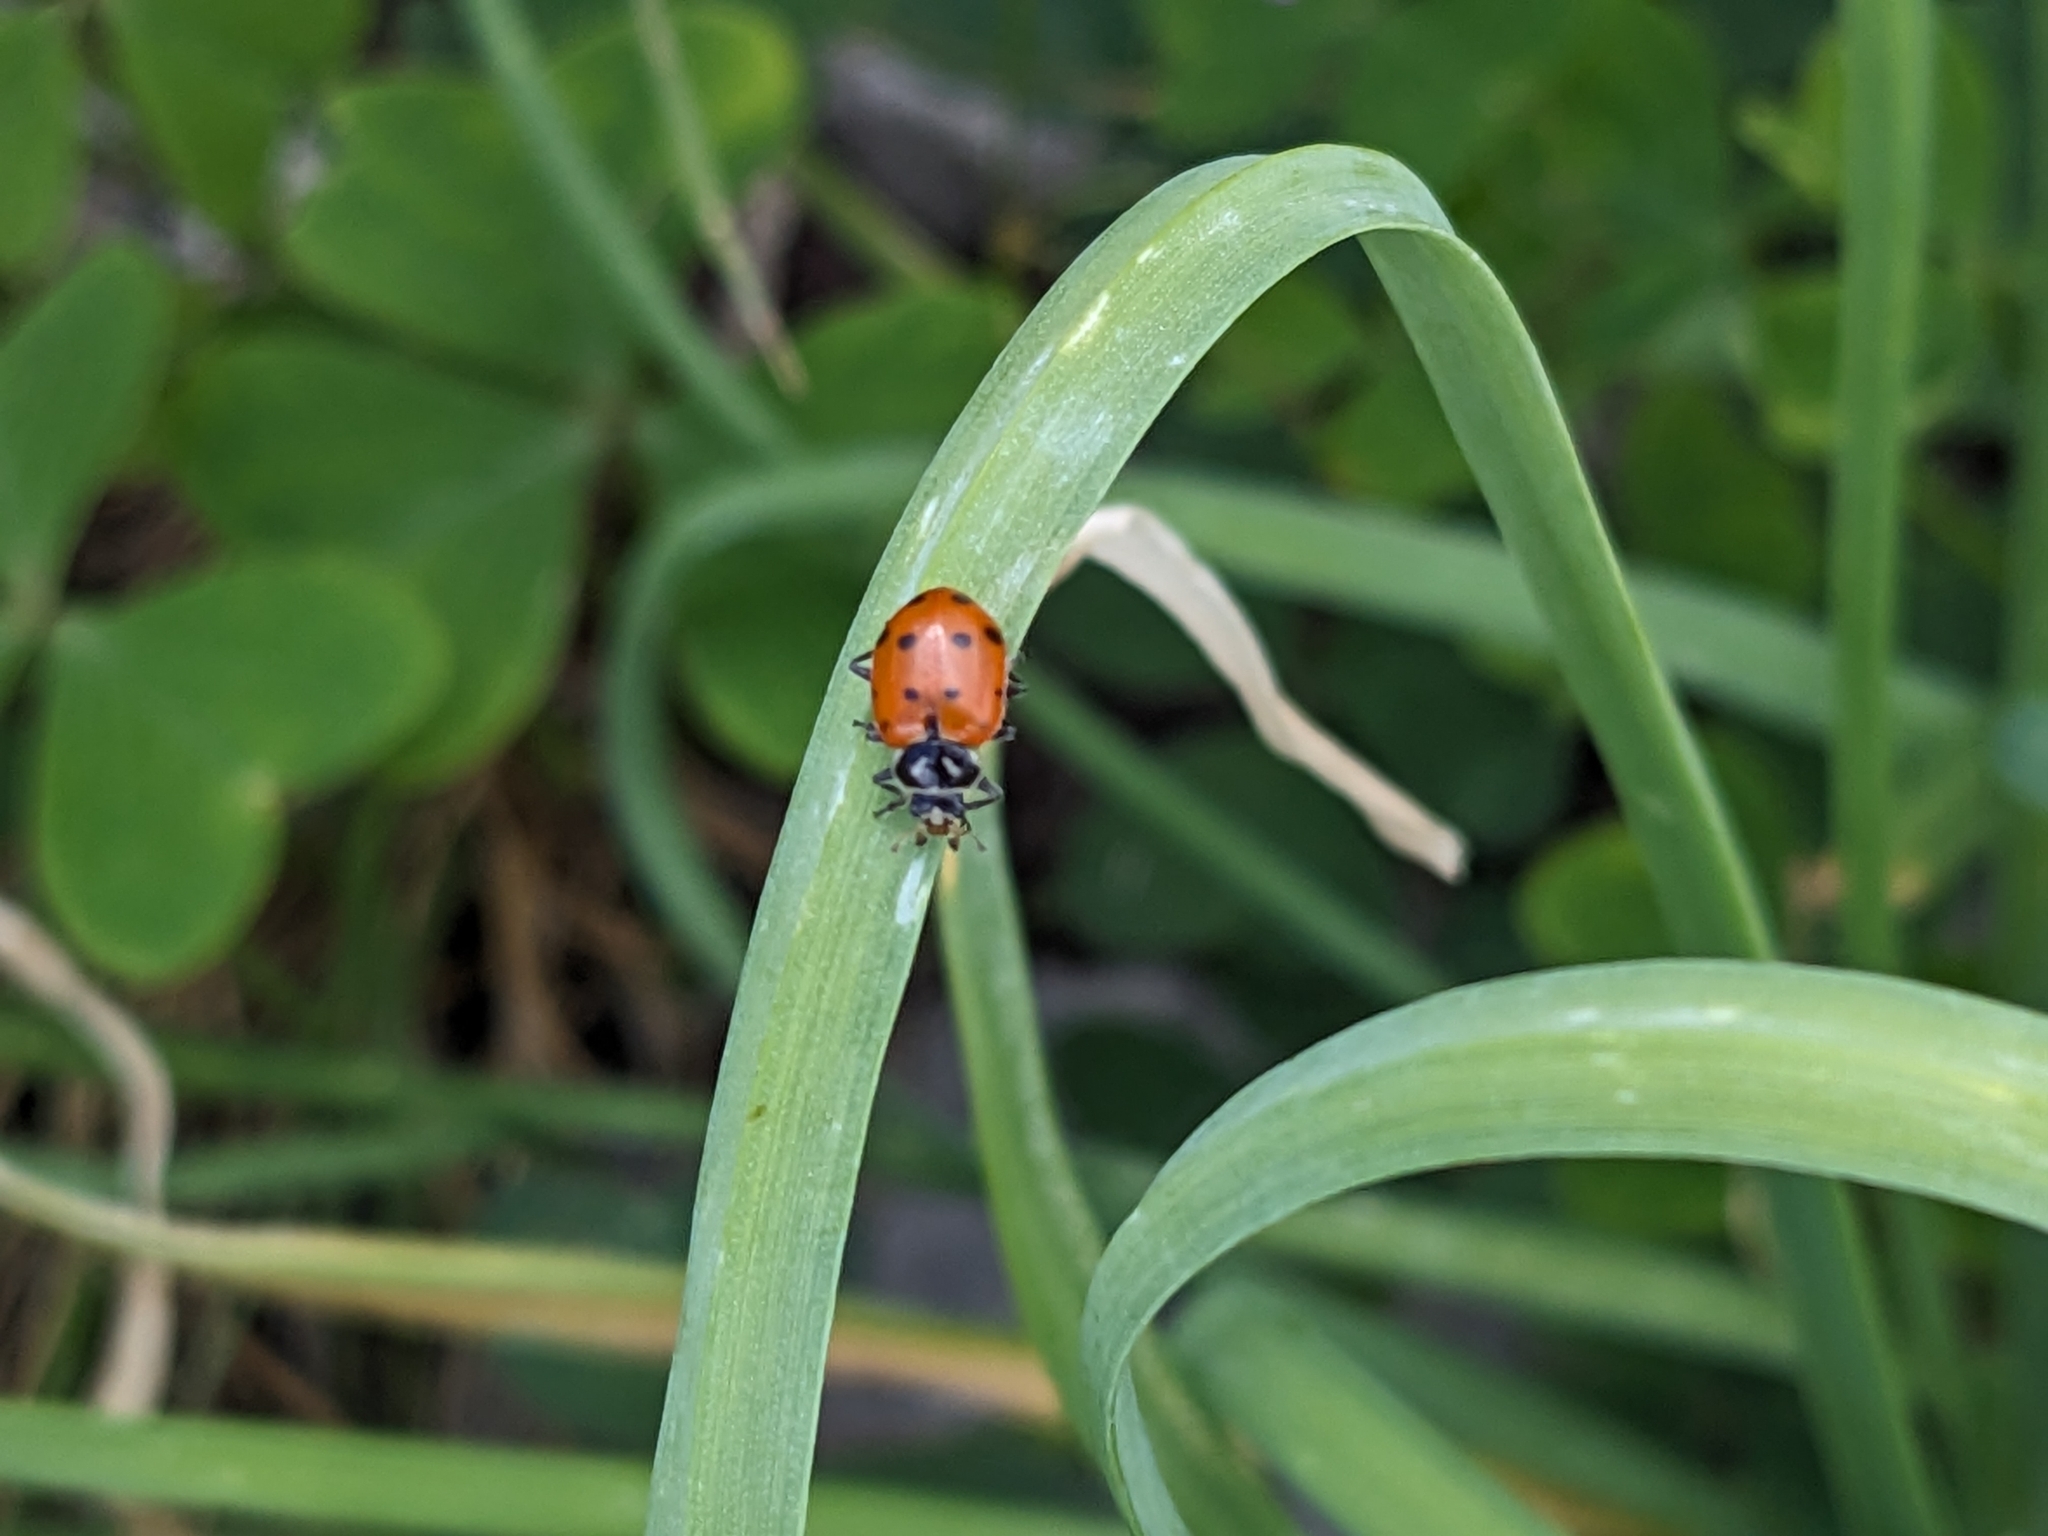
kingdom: Animalia
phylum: Arthropoda
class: Insecta
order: Coleoptera
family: Coccinellidae
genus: Hippodamia
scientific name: Hippodamia convergens
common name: Convergent lady beetle
